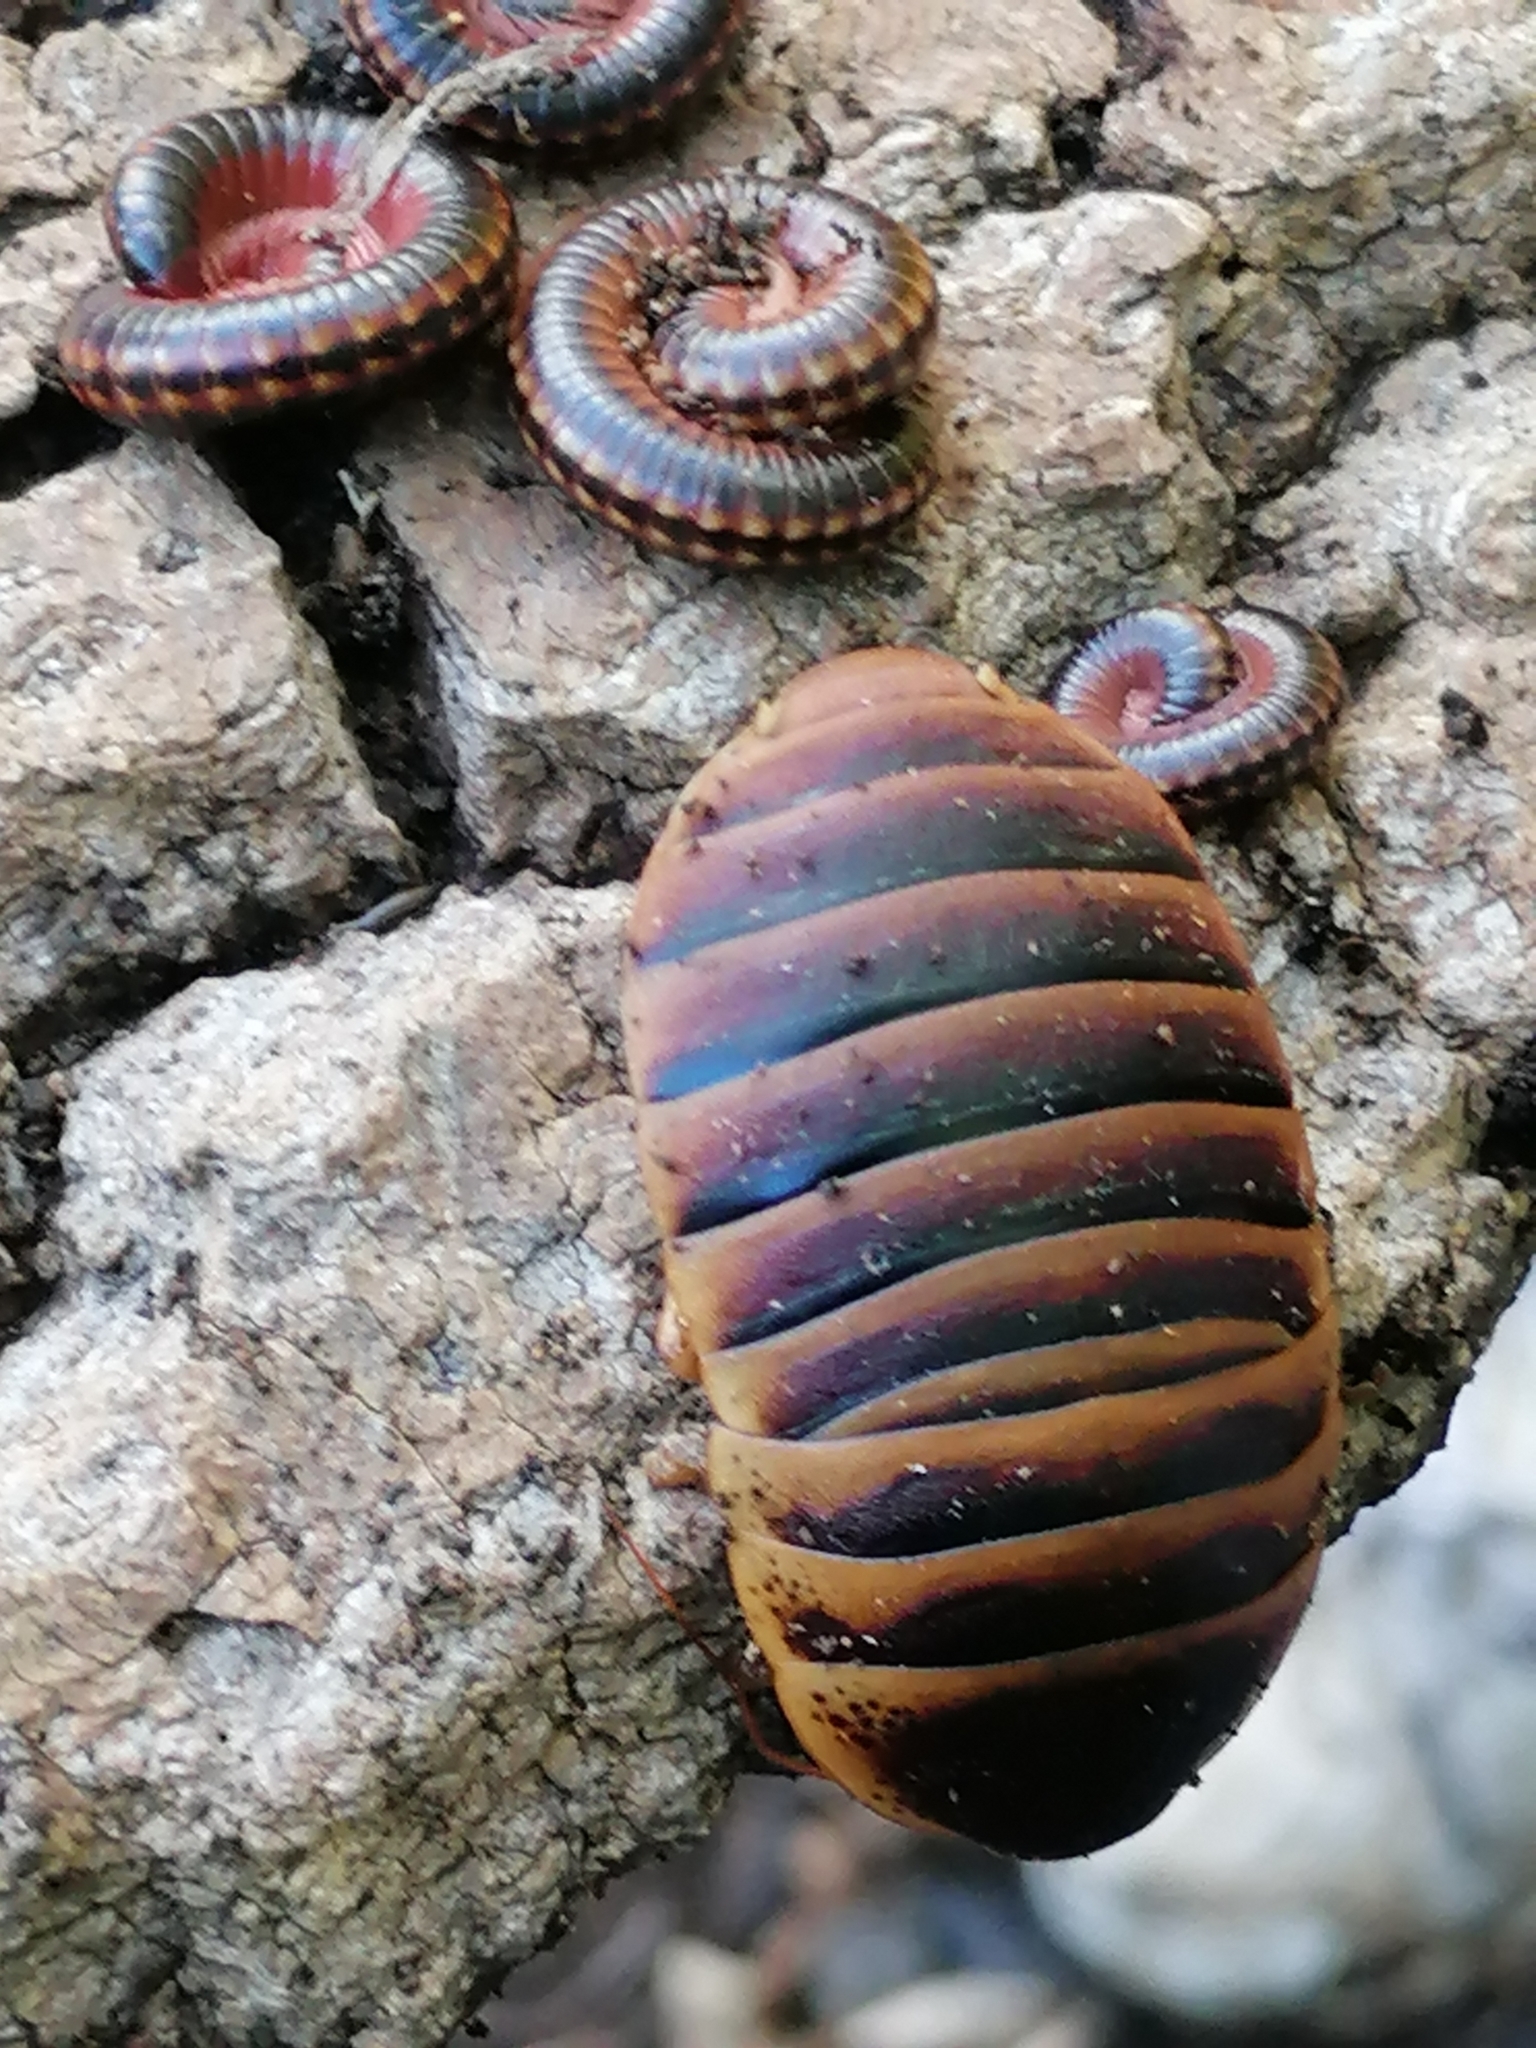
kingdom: Animalia
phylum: Arthropoda
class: Insecta
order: Blattodea
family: Blaberidae
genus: Aptera
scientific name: Aptera fusca
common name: Cape mountain cockroach
